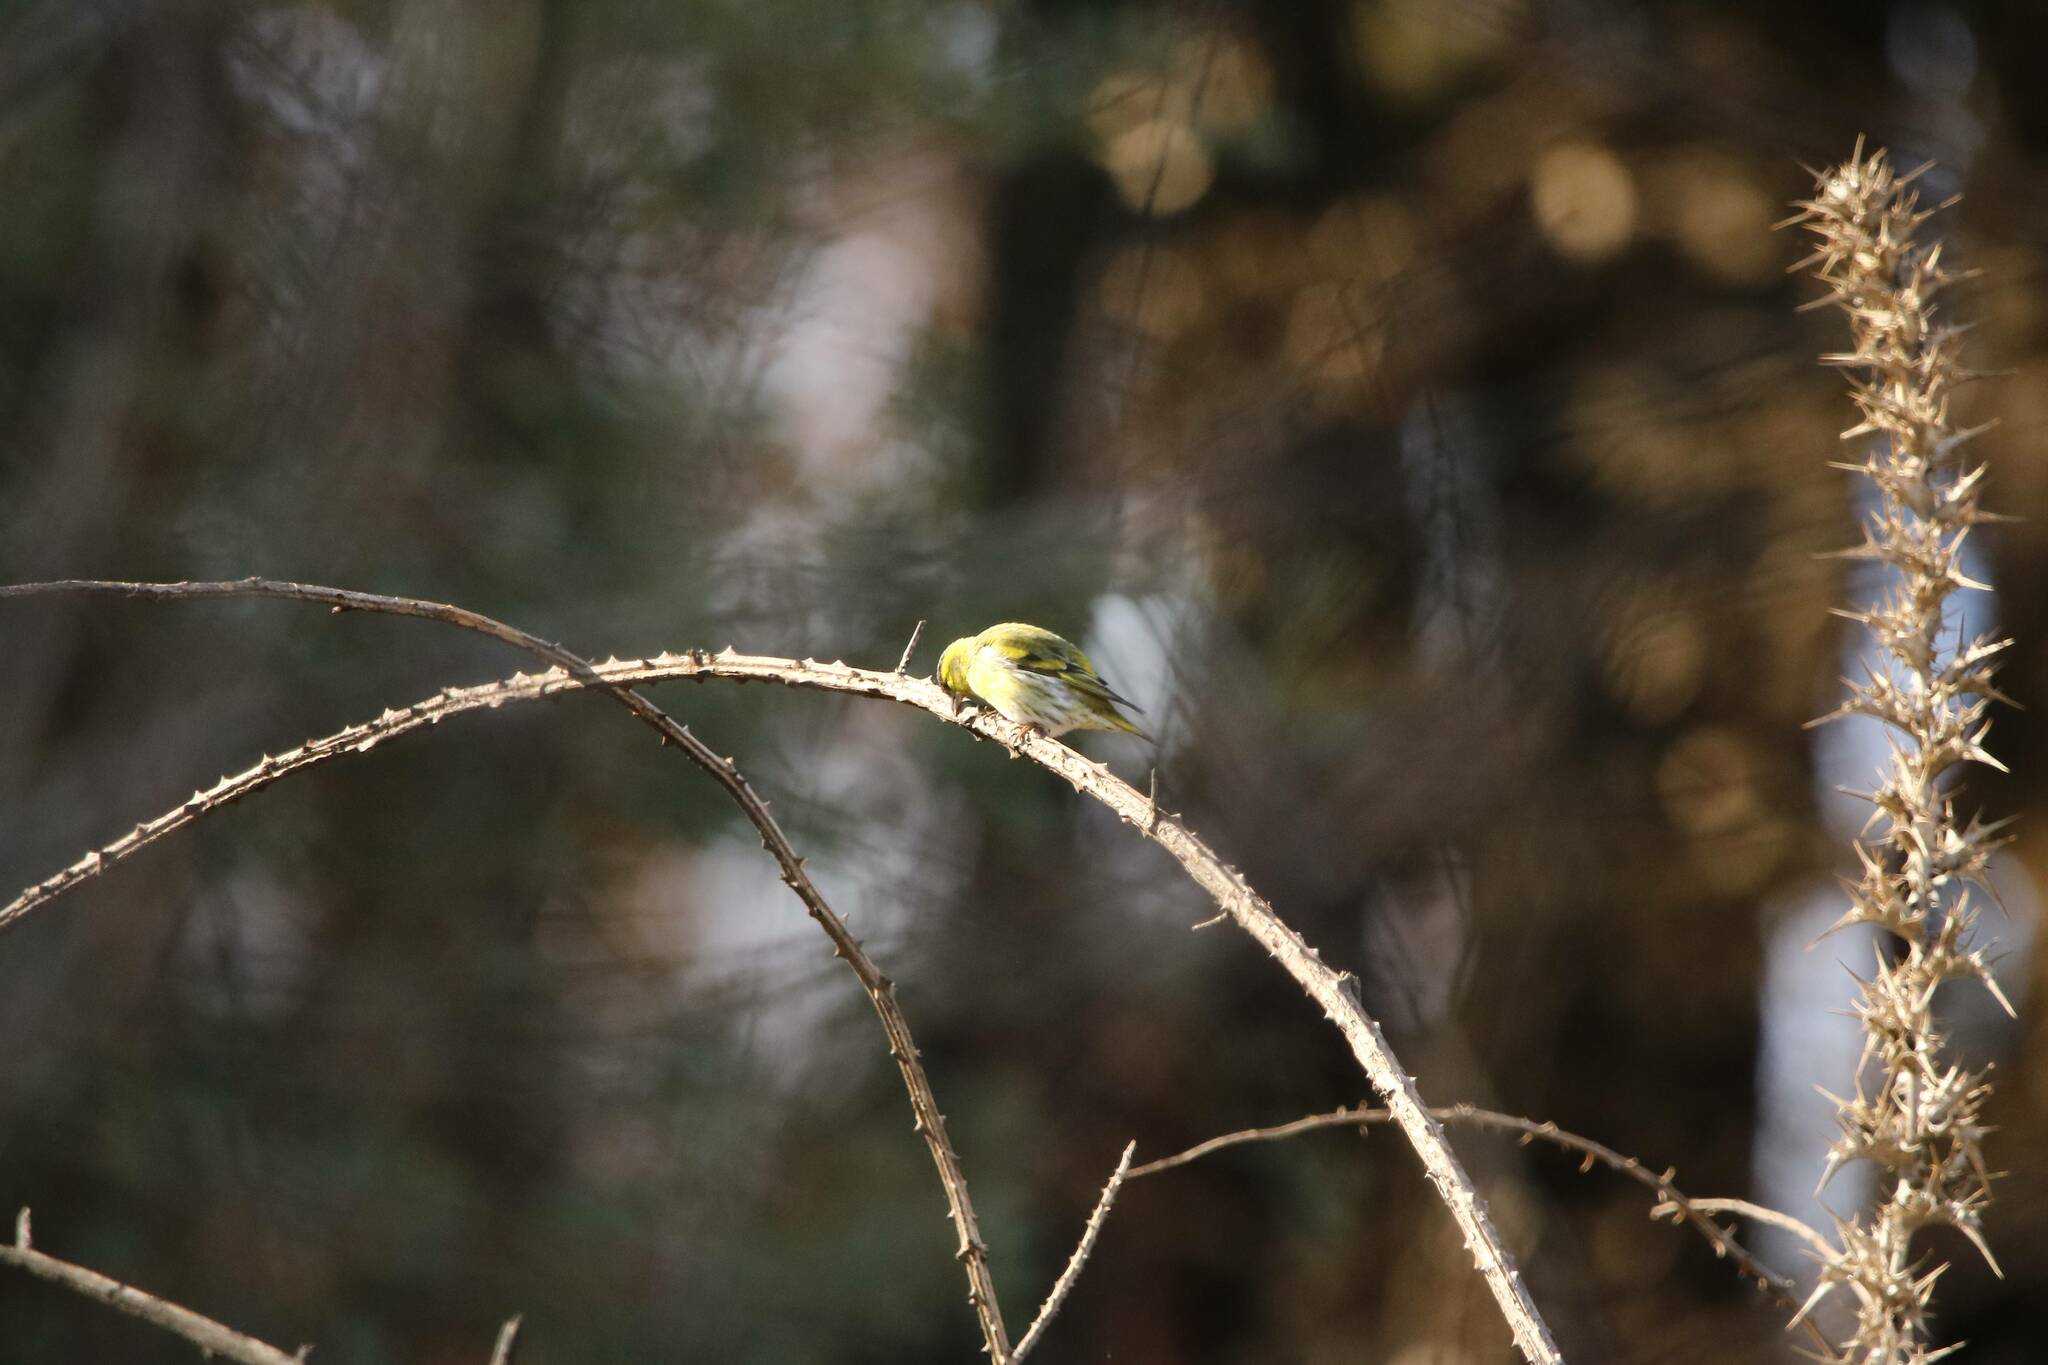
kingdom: Animalia
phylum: Chordata
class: Aves
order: Passeriformes
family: Fringillidae
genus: Spinus
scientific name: Spinus spinus
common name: Eurasian siskin
